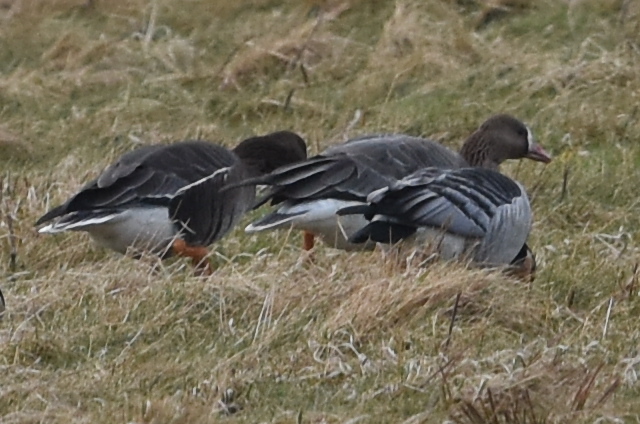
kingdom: Animalia
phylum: Chordata
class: Aves
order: Anseriformes
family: Anatidae
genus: Anser
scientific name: Anser albifrons
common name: Greater white-fronted goose
